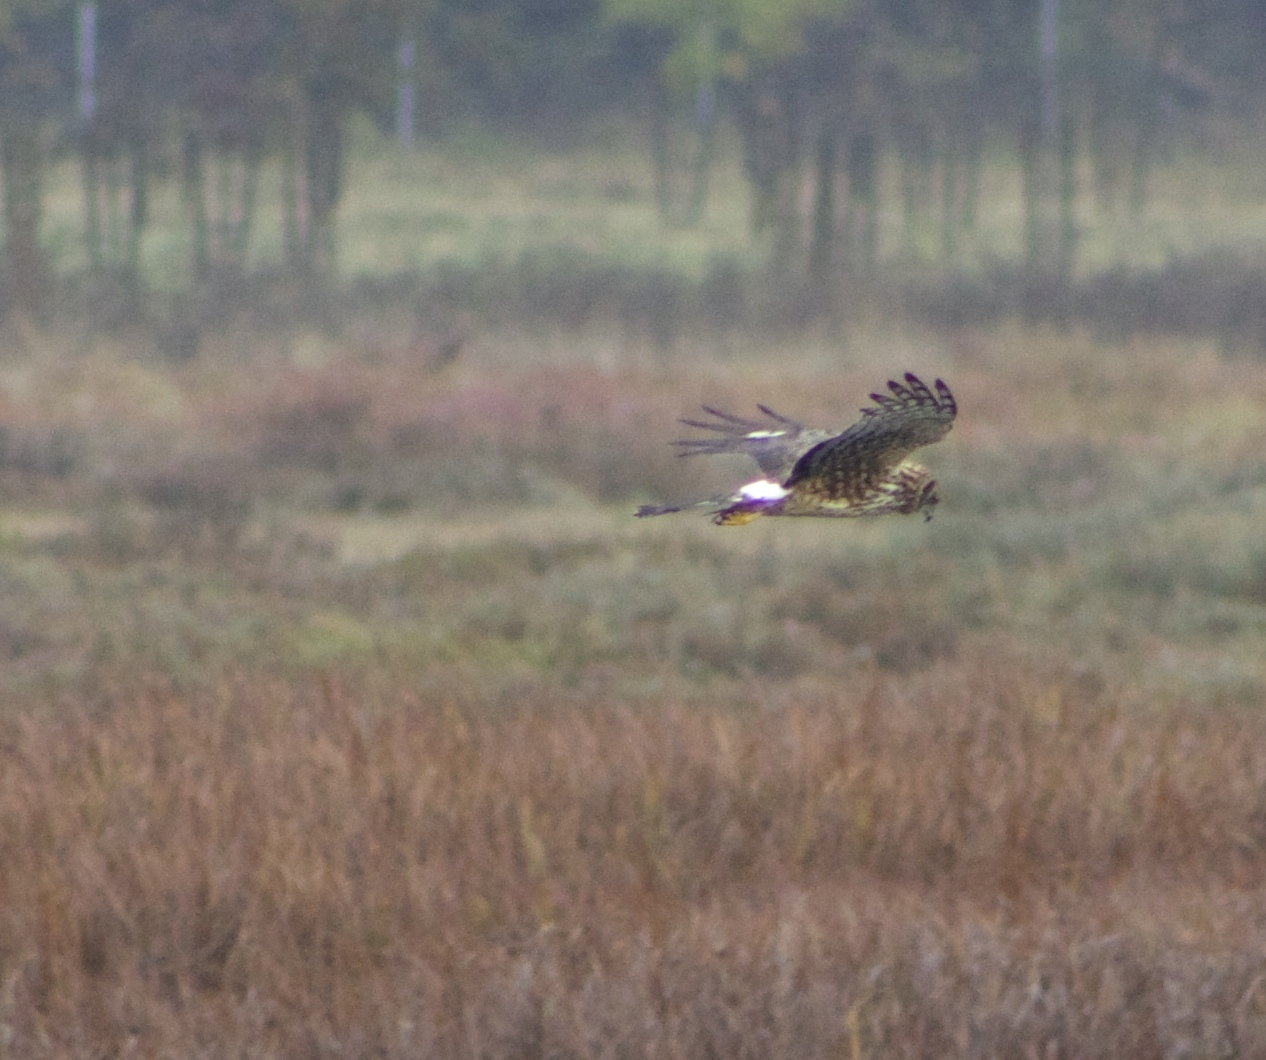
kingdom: Animalia
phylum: Chordata
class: Aves
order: Accipitriformes
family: Accipitridae
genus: Circus
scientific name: Circus cyaneus
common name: Hen harrier
